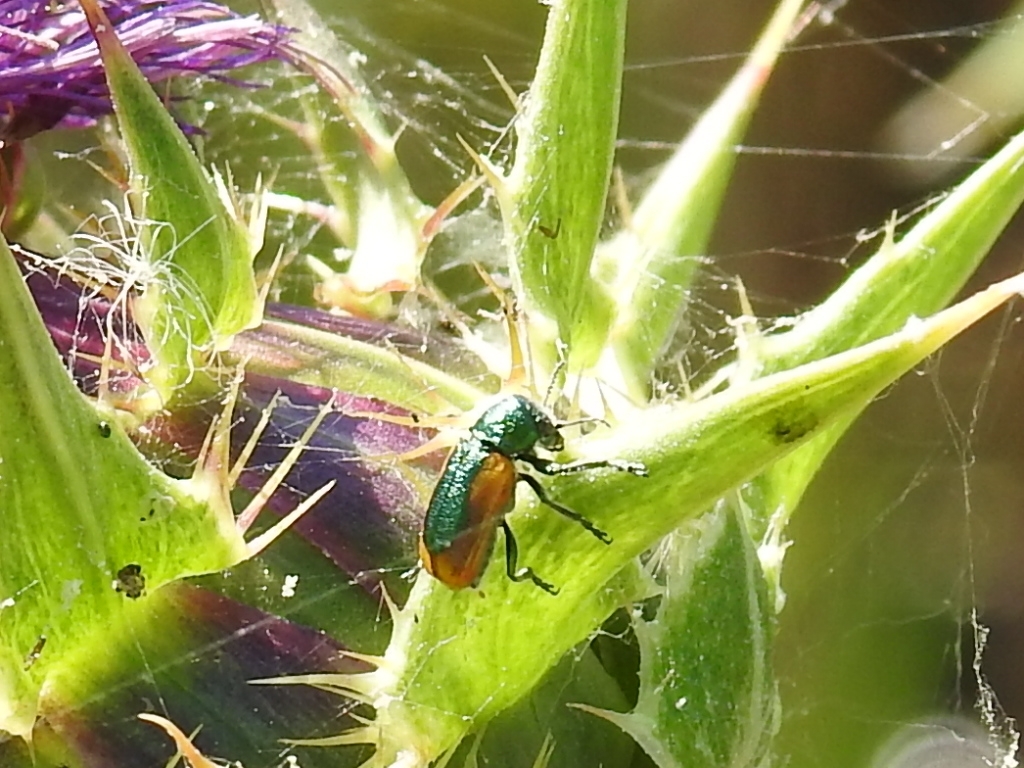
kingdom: Animalia
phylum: Arthropoda
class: Insecta
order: Coleoptera
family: Chrysomelidae
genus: Smaragdina
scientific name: Smaragdina limbata
